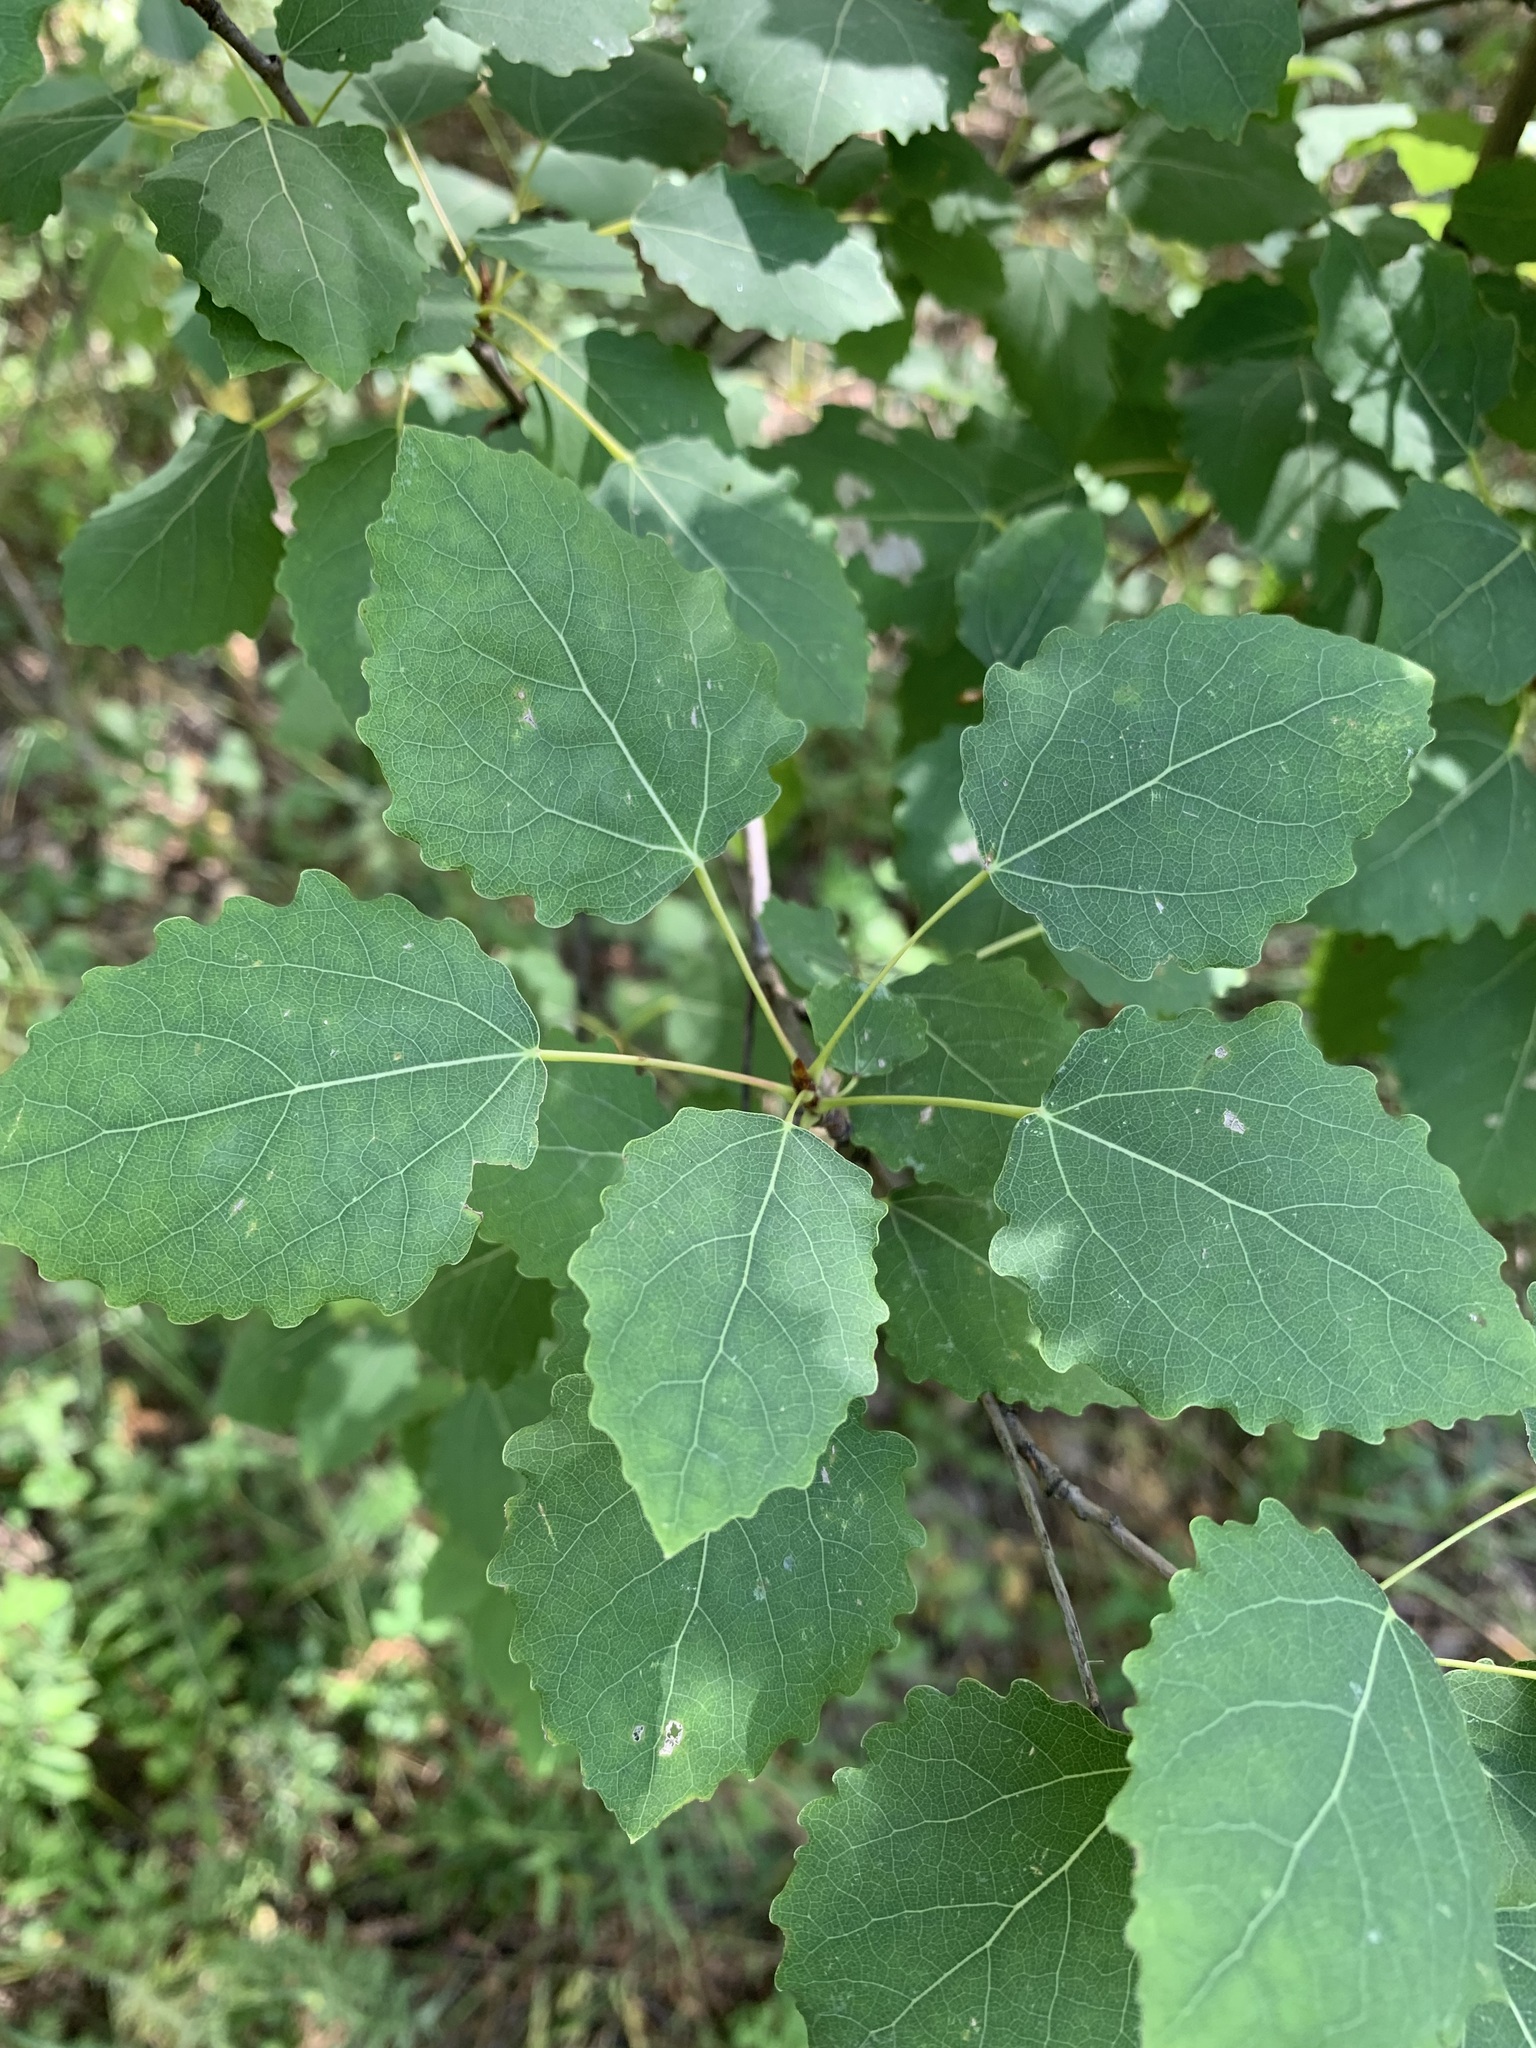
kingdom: Plantae
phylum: Tracheophyta
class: Magnoliopsida
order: Malpighiales
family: Salicaceae
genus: Populus
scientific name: Populus tremula
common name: European aspen
